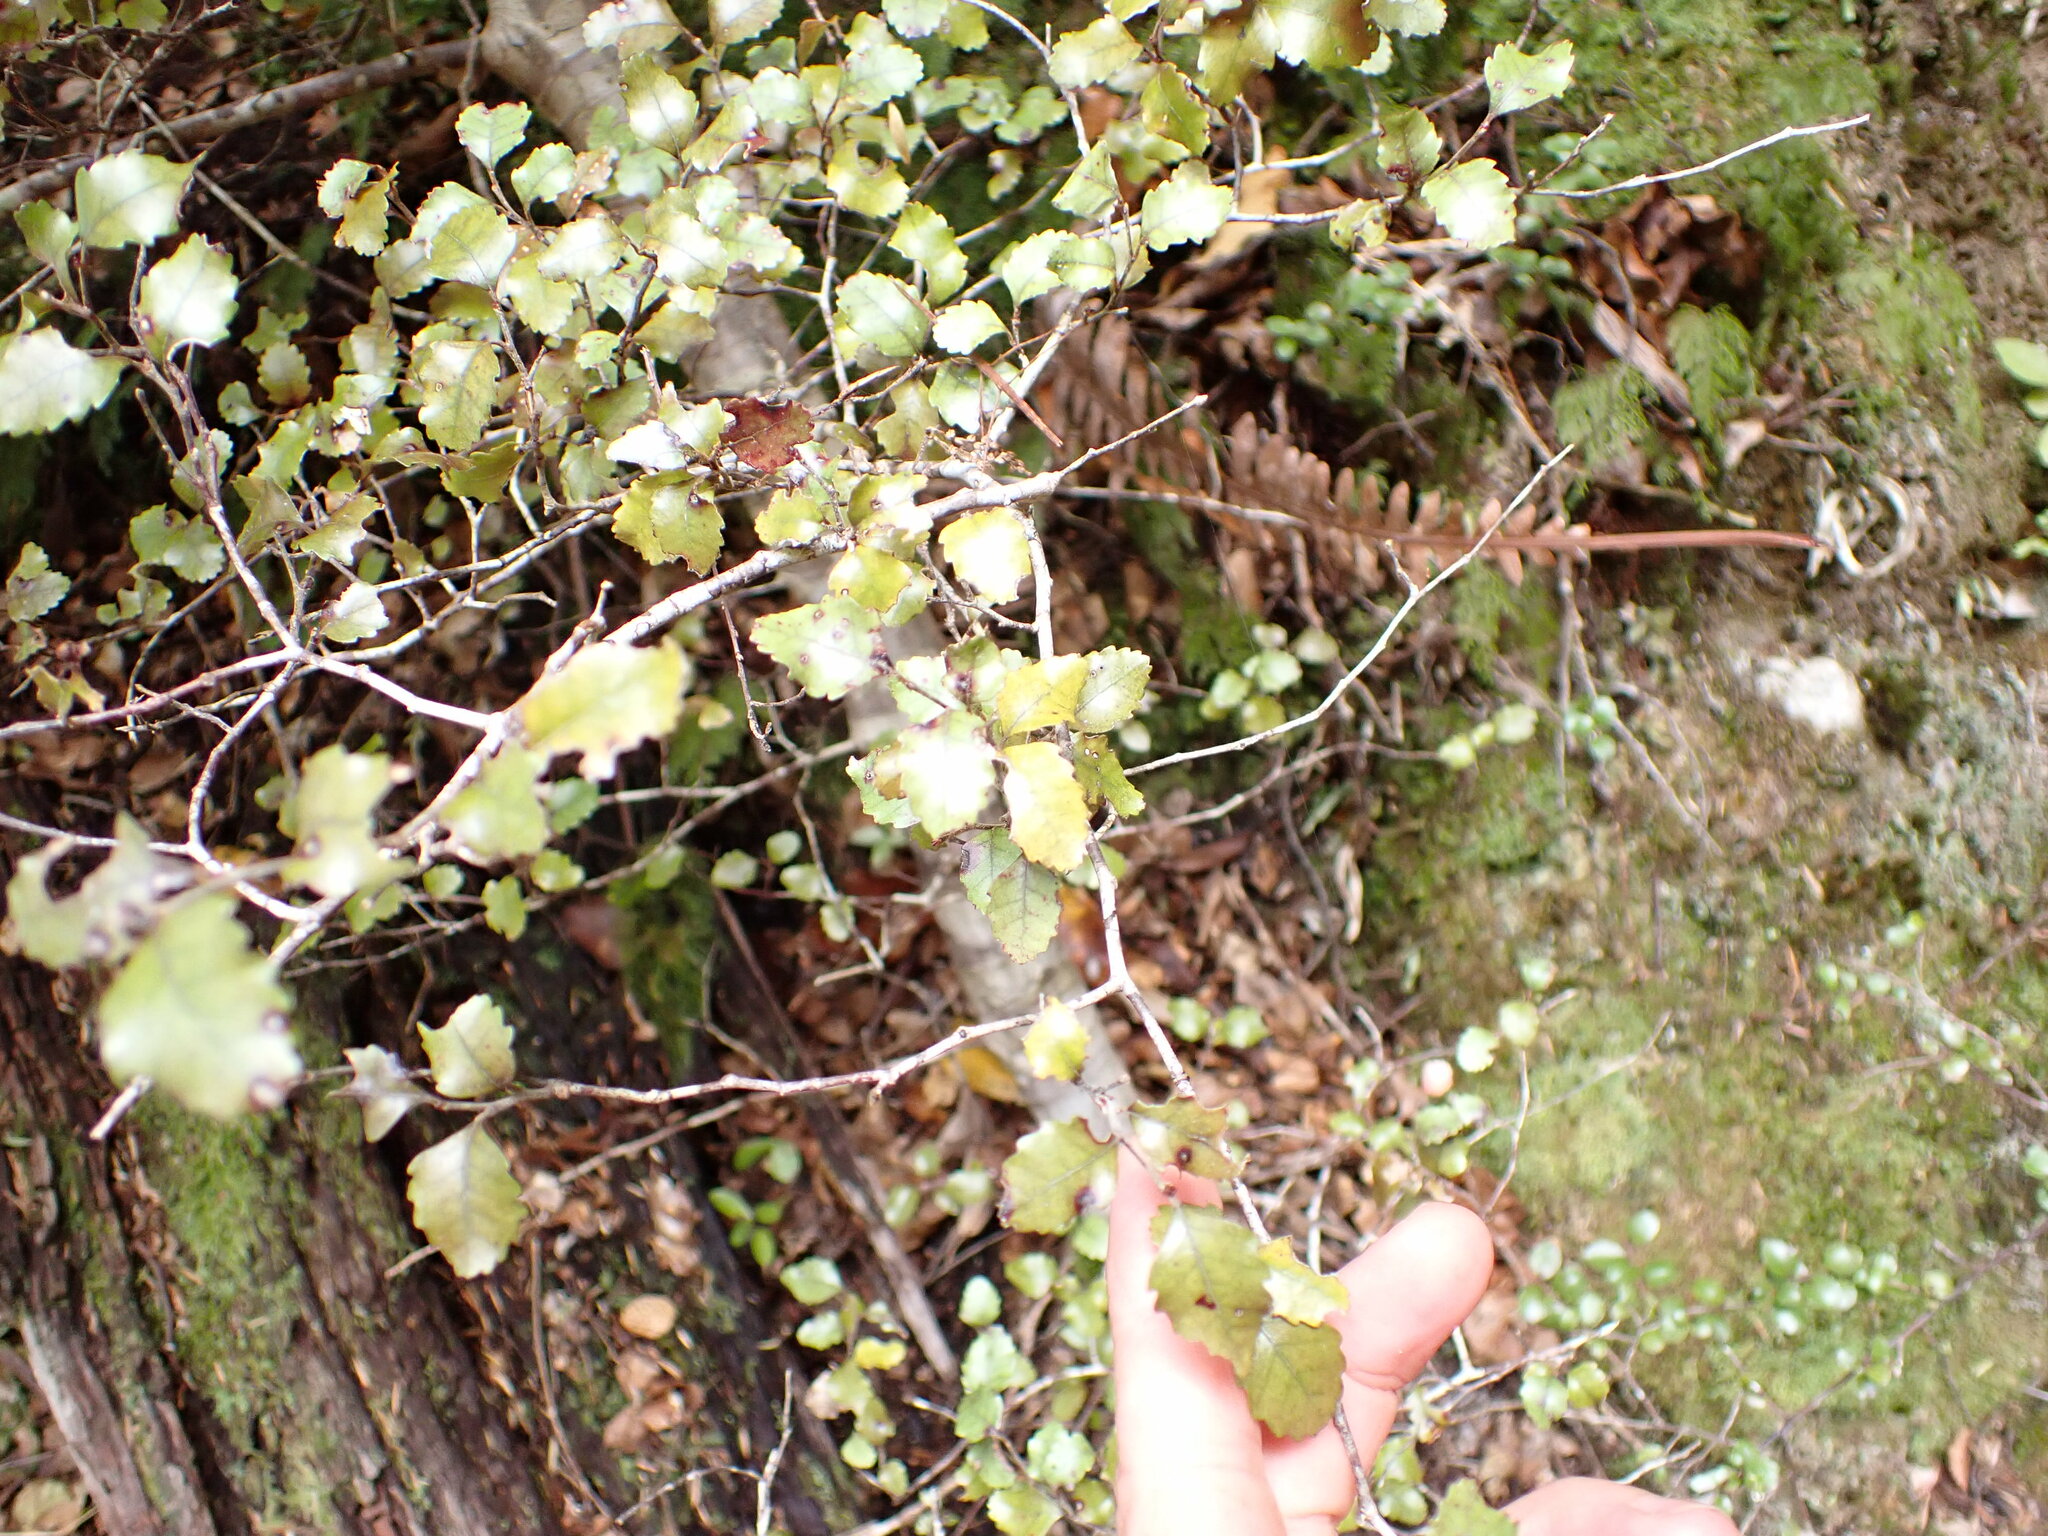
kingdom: Plantae
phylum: Tracheophyta
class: Magnoliopsida
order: Fagales
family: Nothofagaceae
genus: Nothofagus
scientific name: Nothofagus truncata
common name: Hard beech
